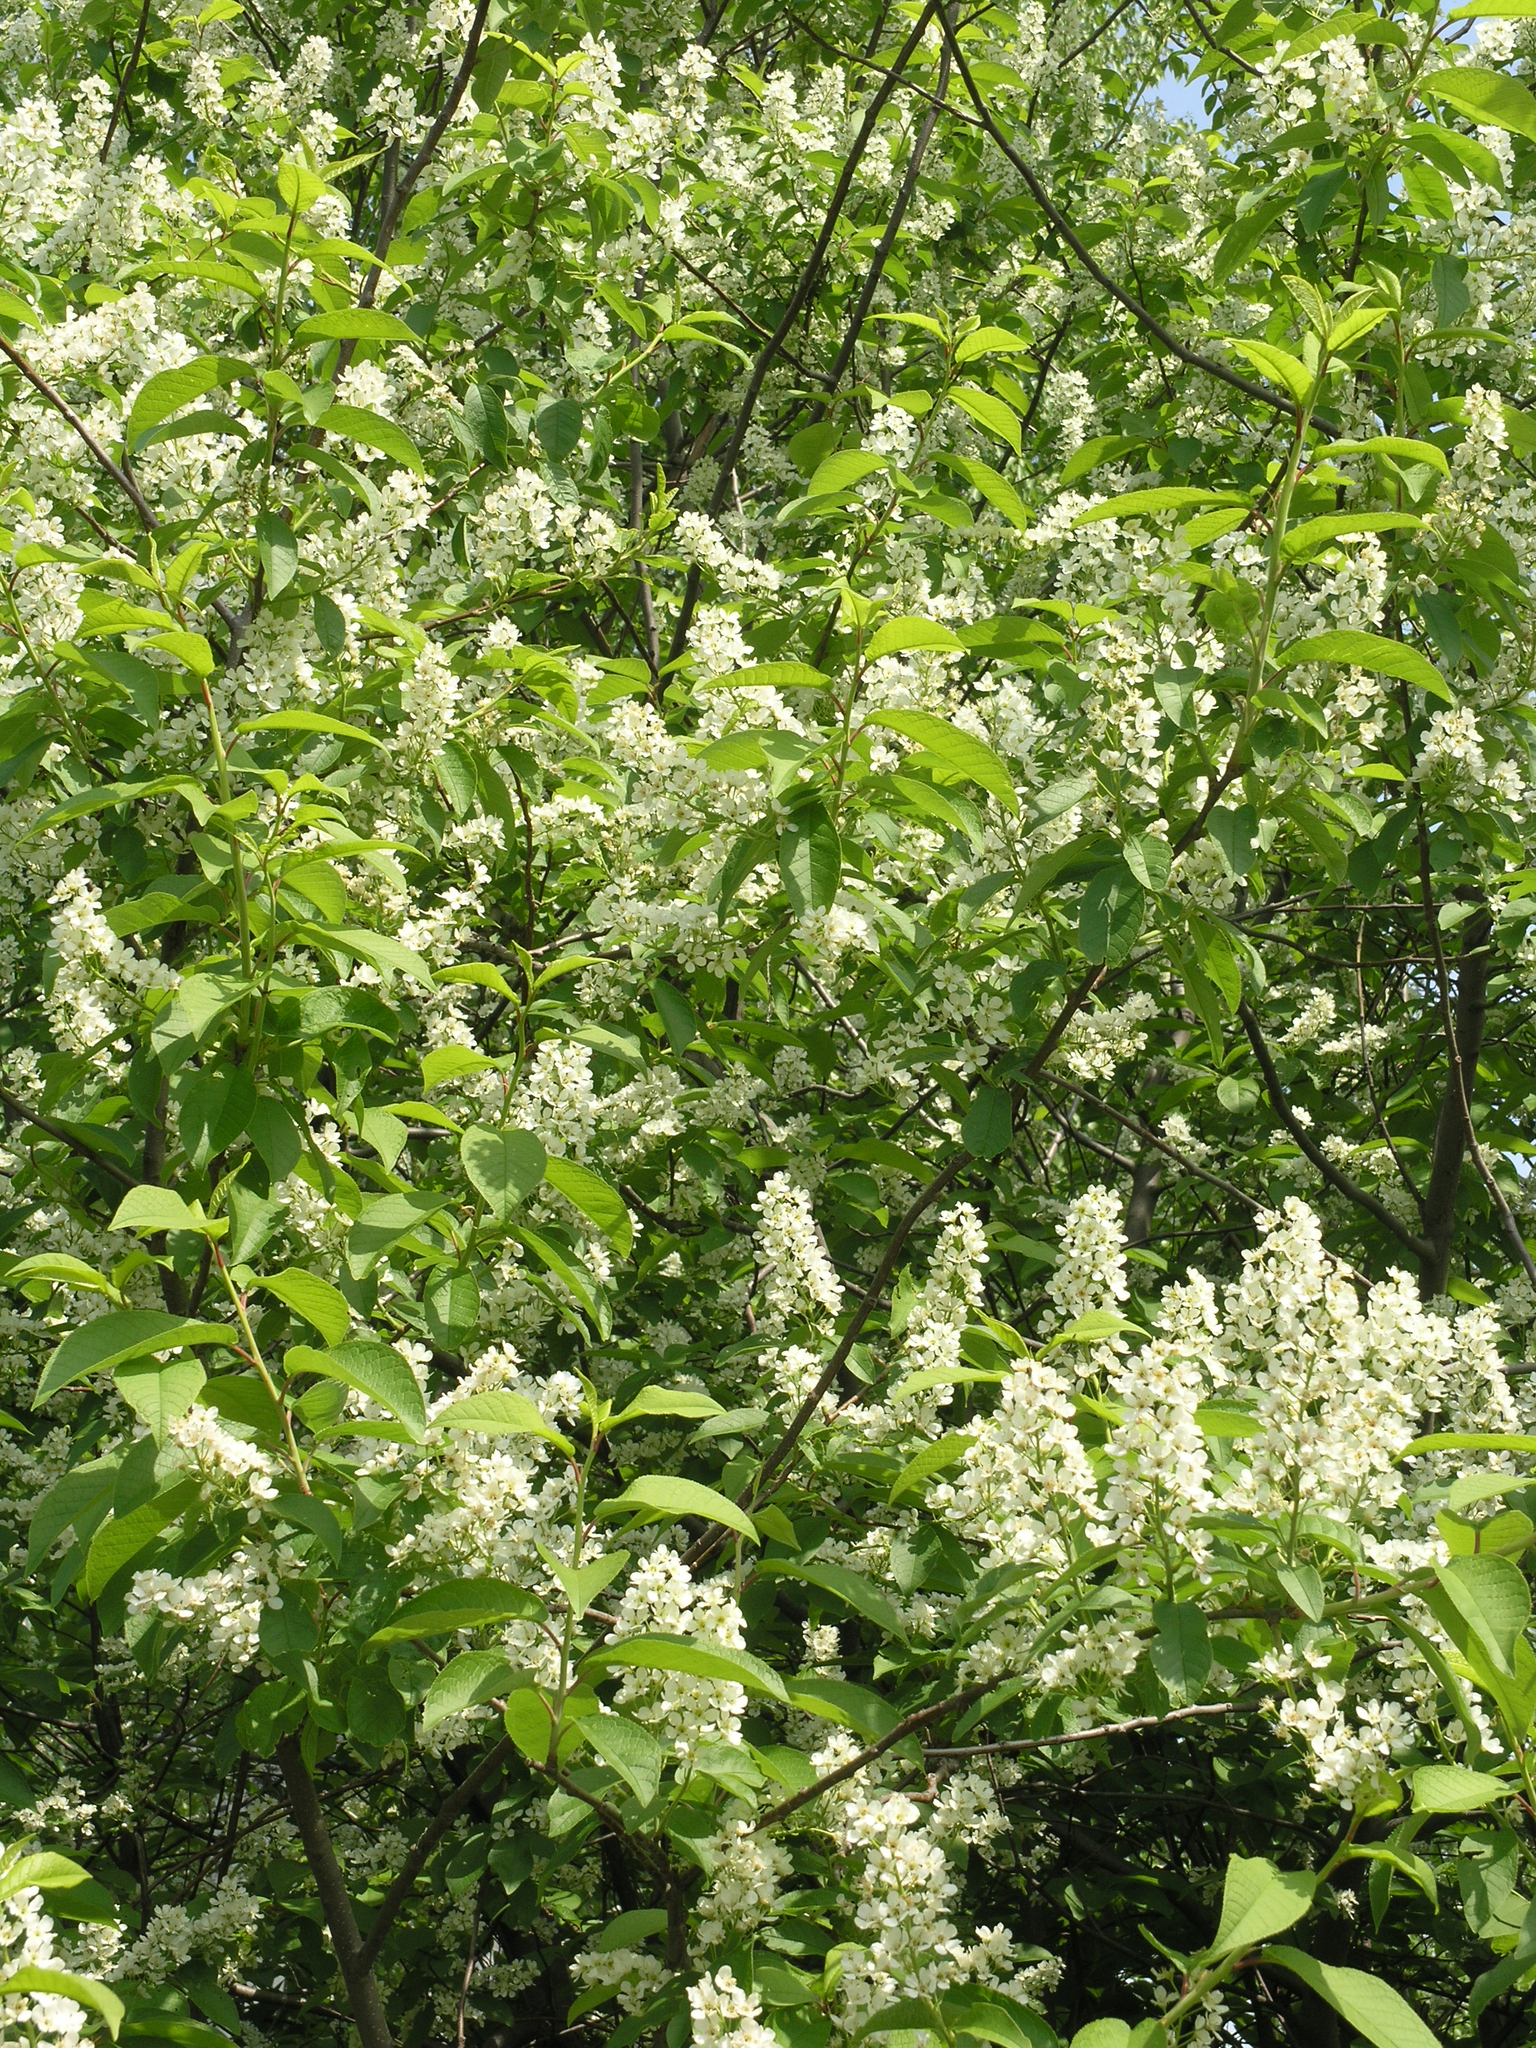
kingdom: Plantae
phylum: Tracheophyta
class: Magnoliopsida
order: Rosales
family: Rosaceae
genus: Prunus
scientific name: Prunus padus
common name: Bird cherry
